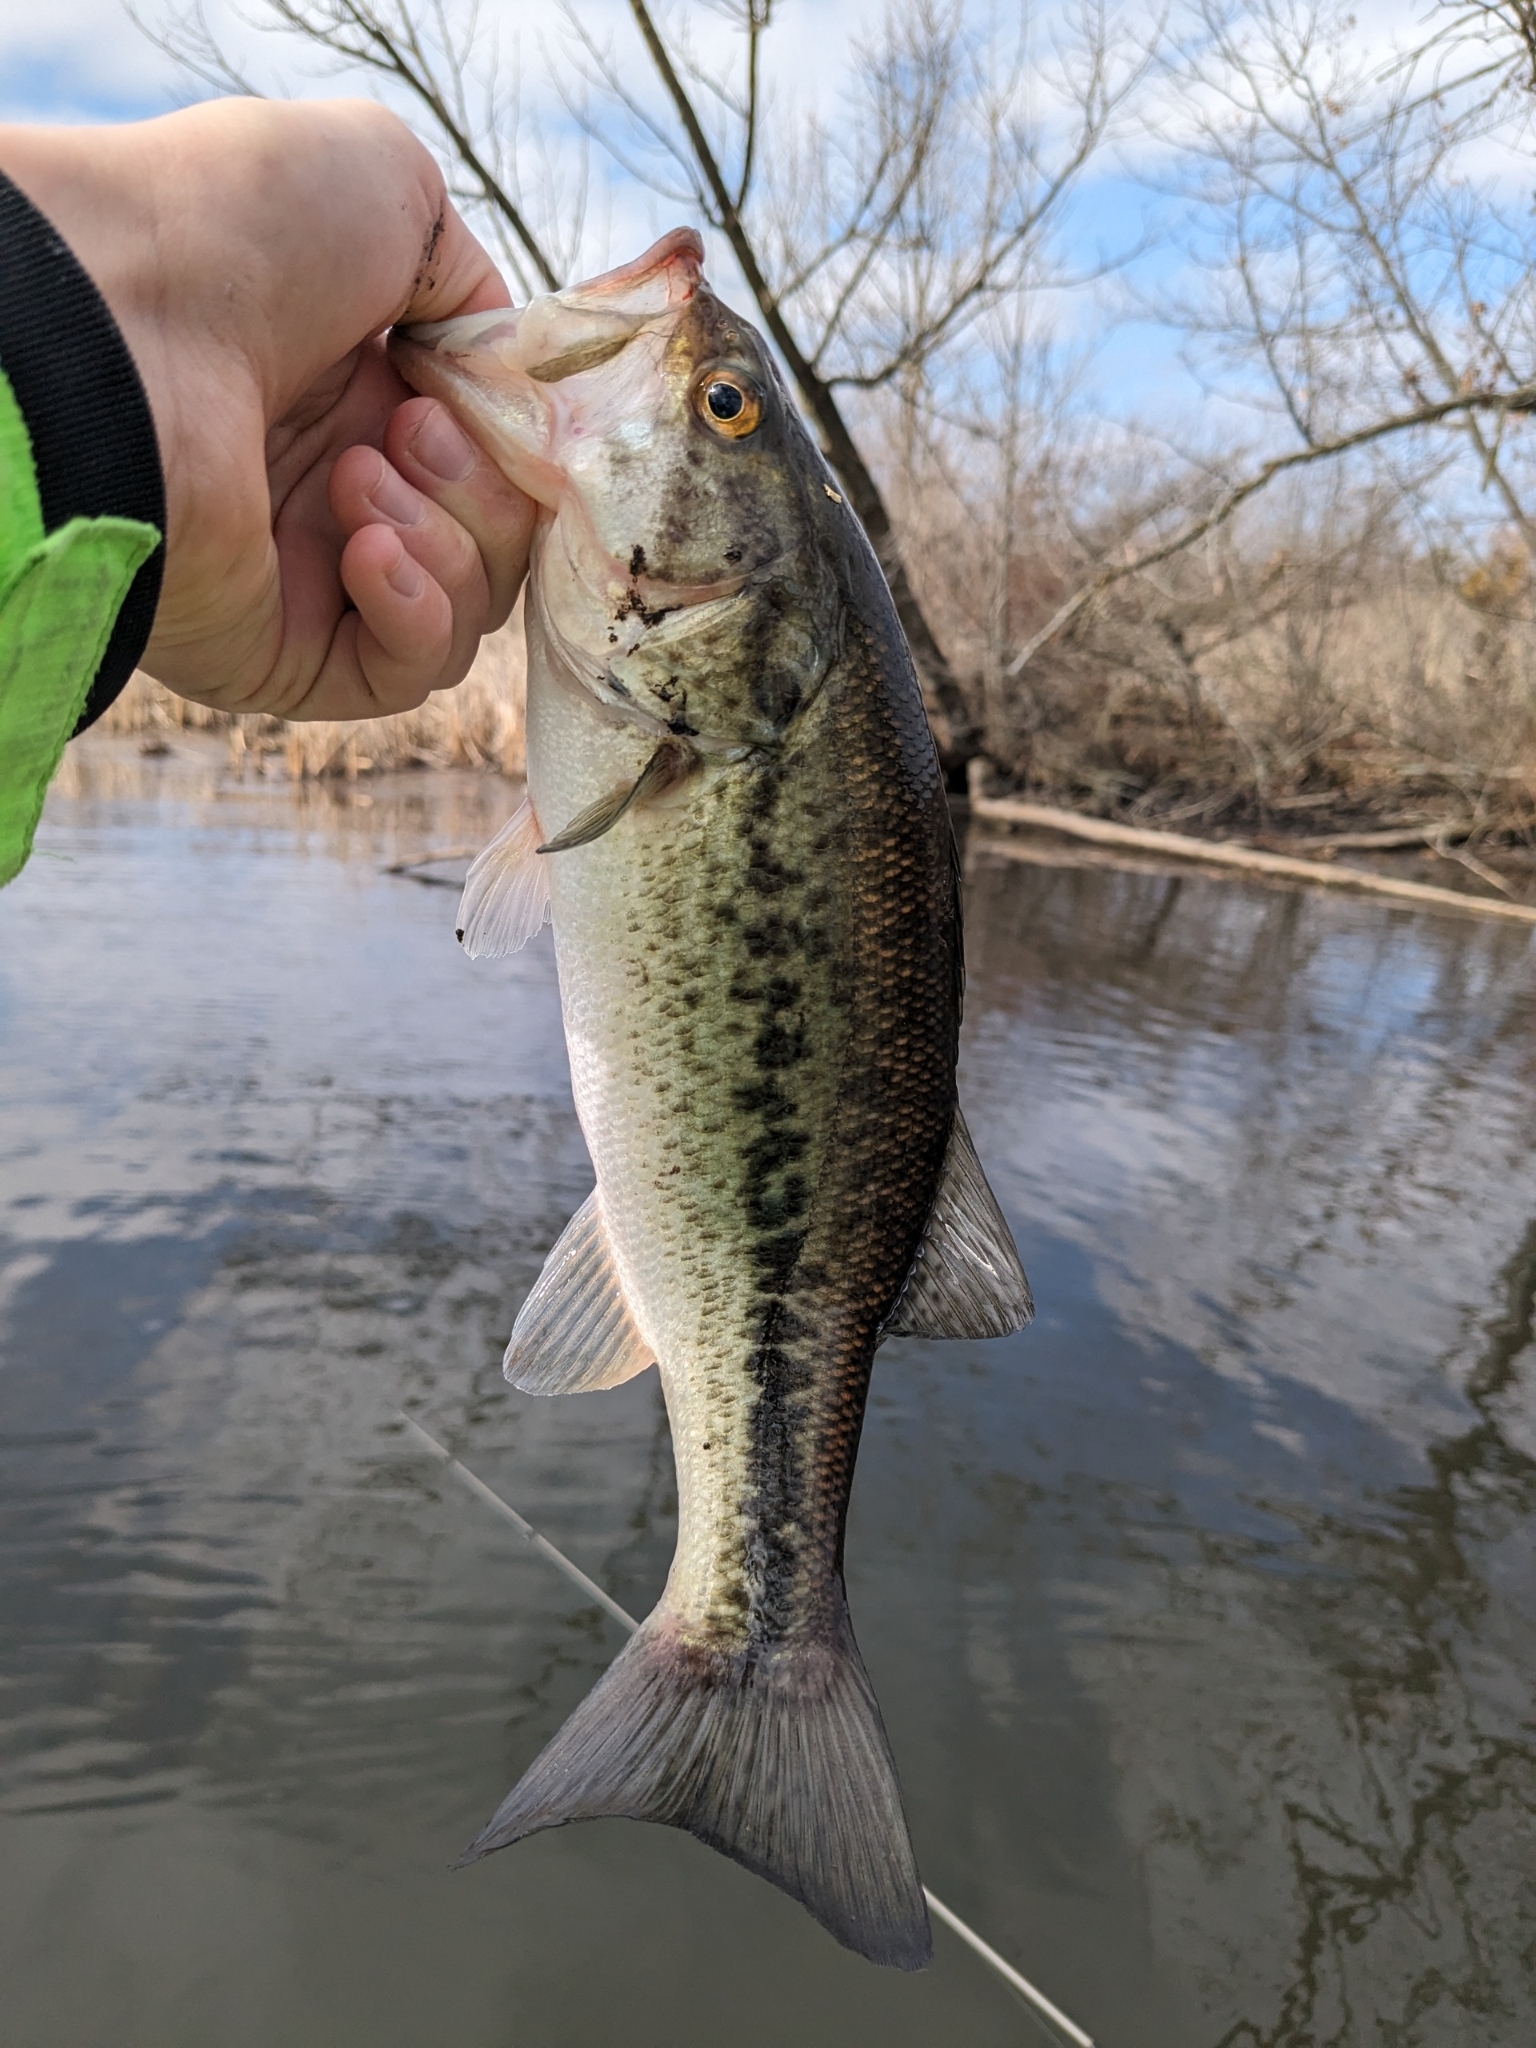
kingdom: Animalia
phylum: Chordata
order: Perciformes
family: Centrarchidae
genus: Micropterus
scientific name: Micropterus
